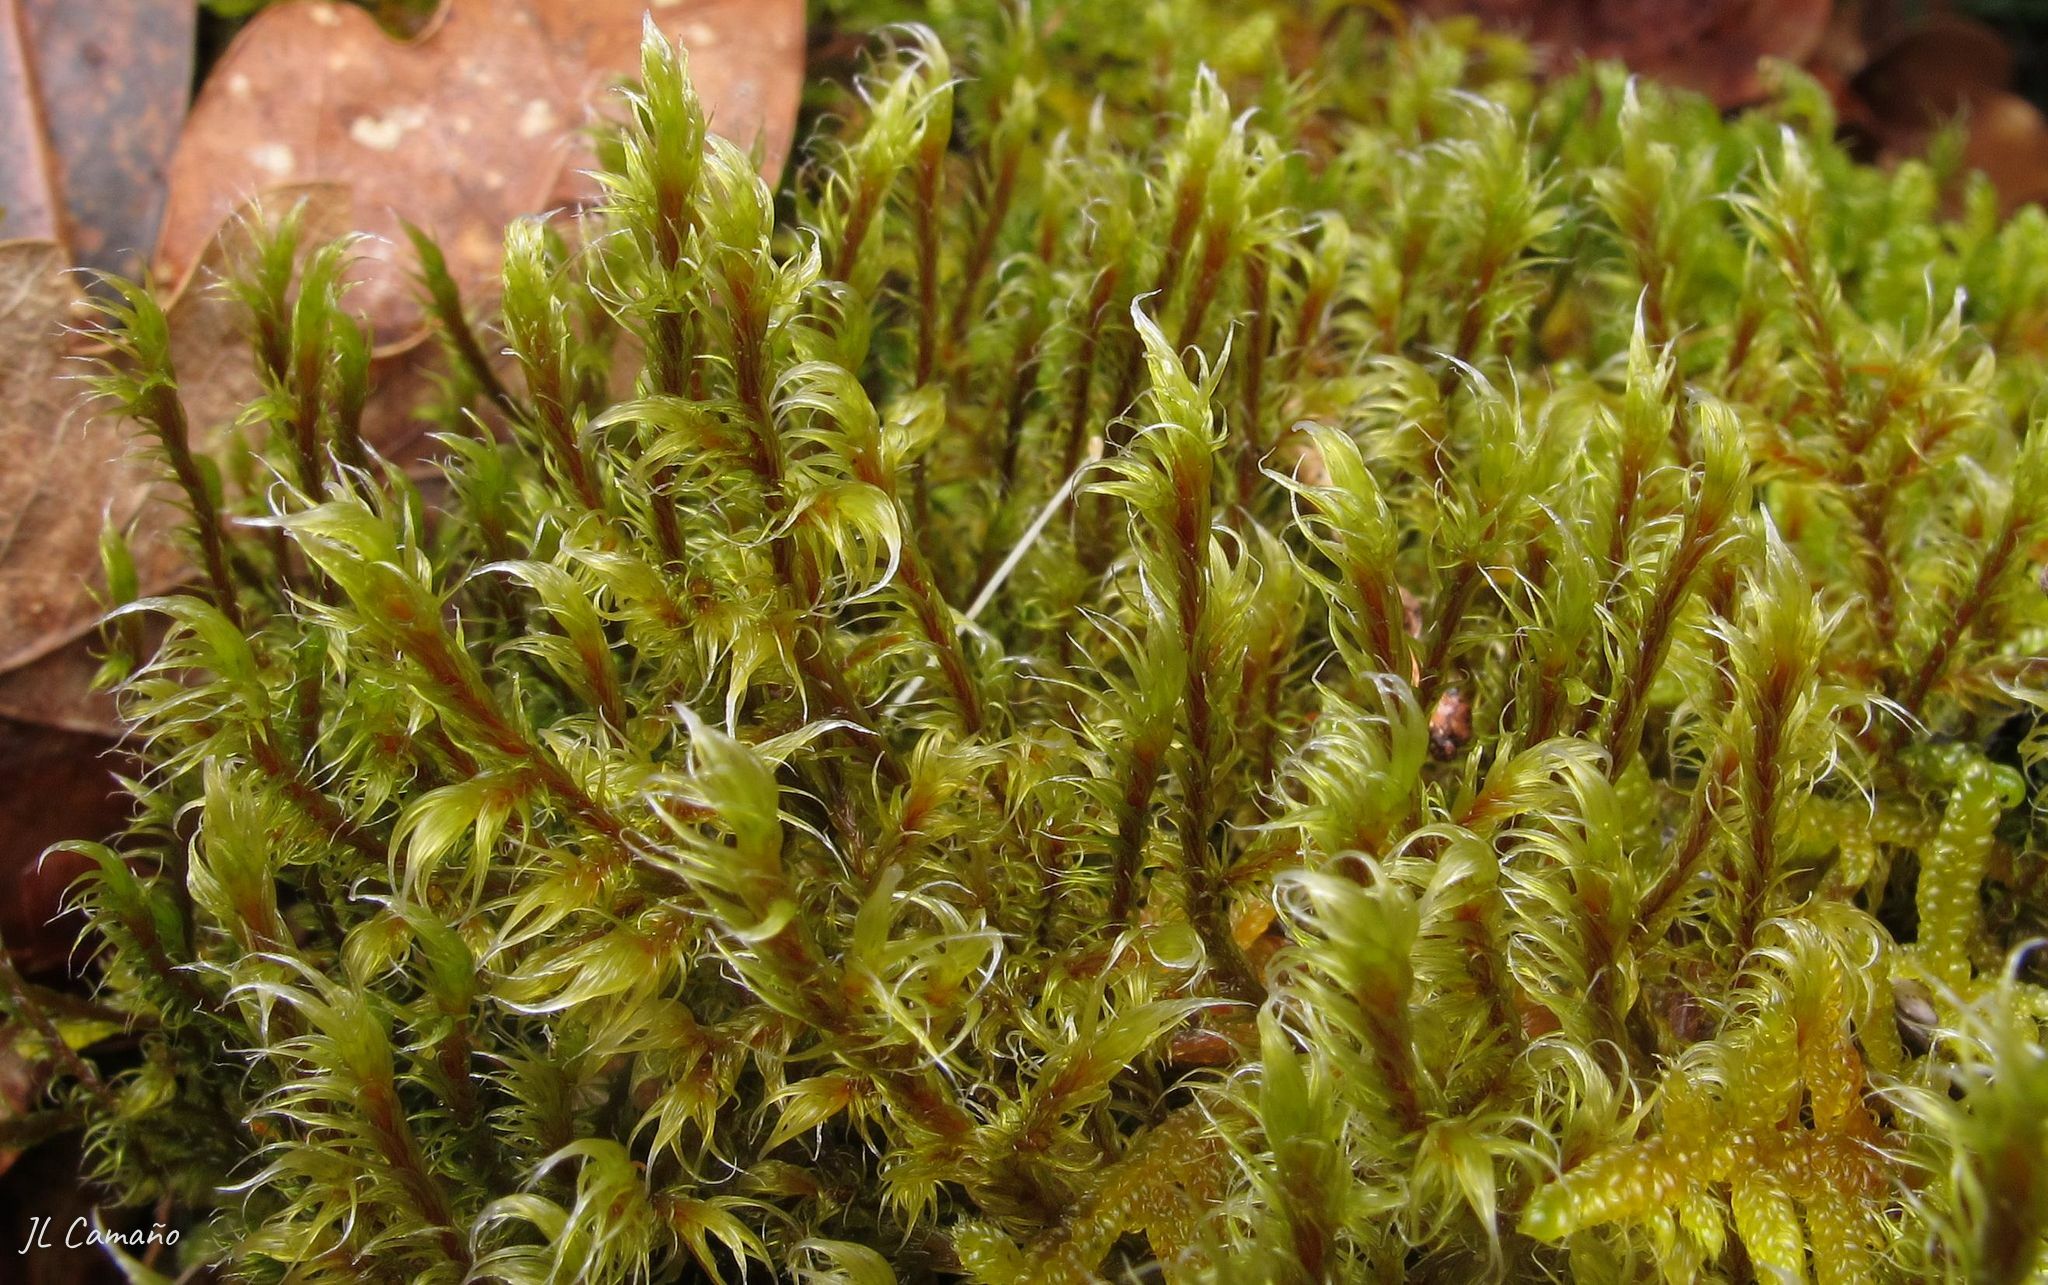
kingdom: Plantae
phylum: Bryophyta
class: Bryopsida
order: Grimmiales
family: Grimmiaceae
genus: Racomitrium
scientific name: Racomitrium lanuginosum
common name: Hoary rock moss
